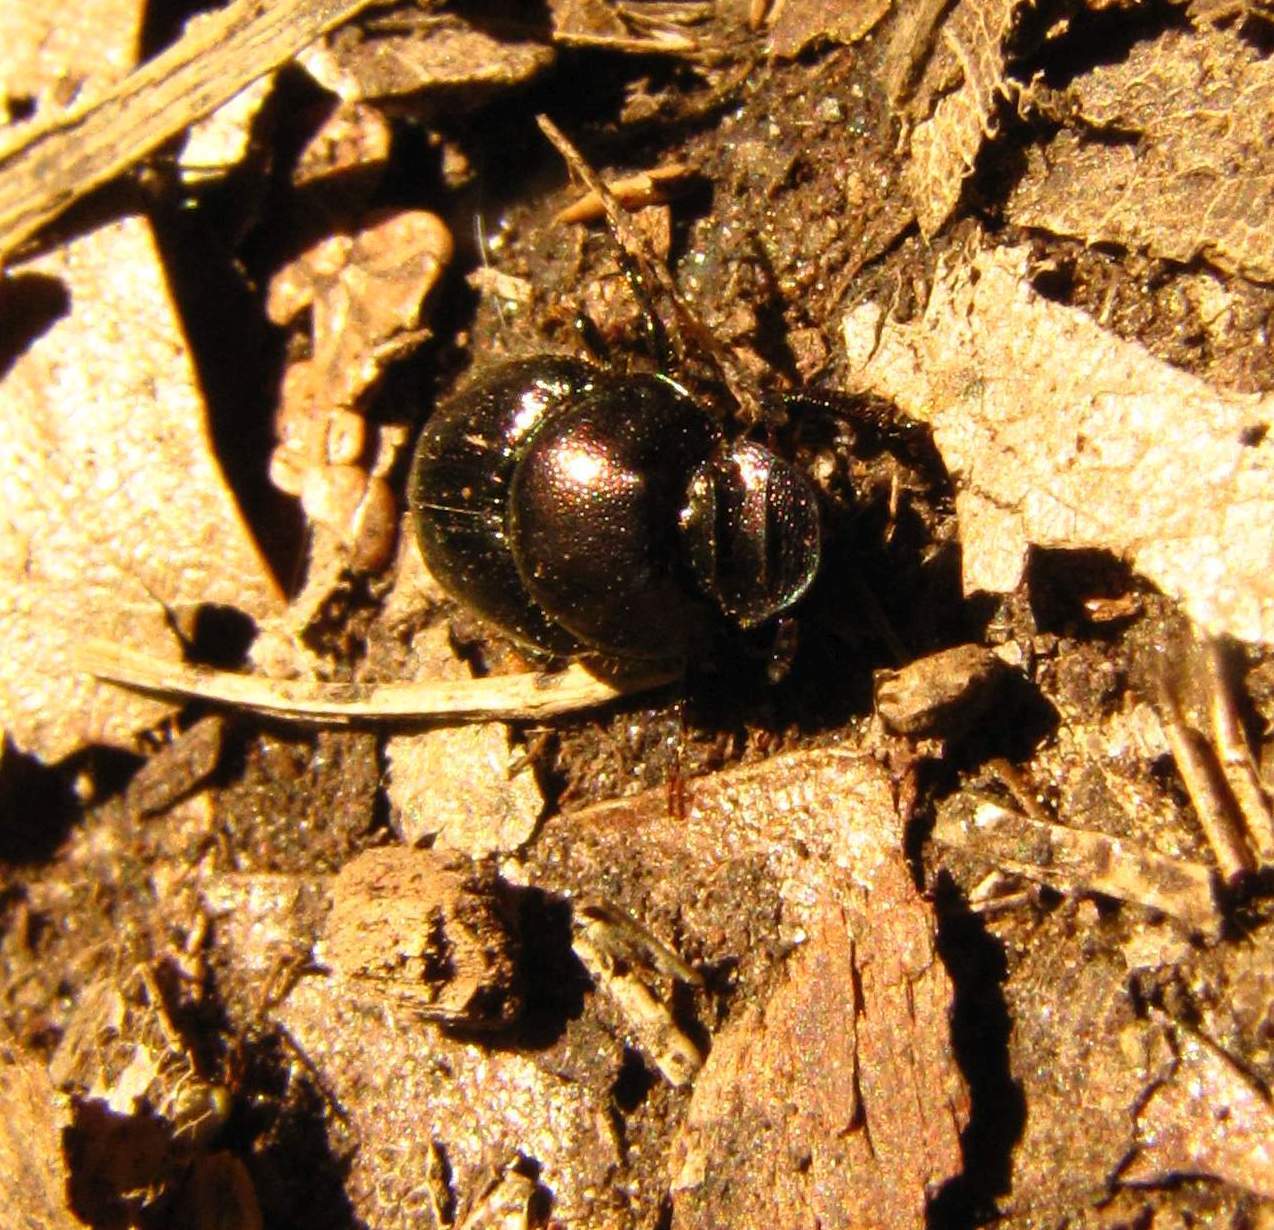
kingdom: Animalia
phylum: Arthropoda
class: Insecta
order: Coleoptera
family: Scarabaeidae
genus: Onthophagus
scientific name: Onthophagus orpheus
